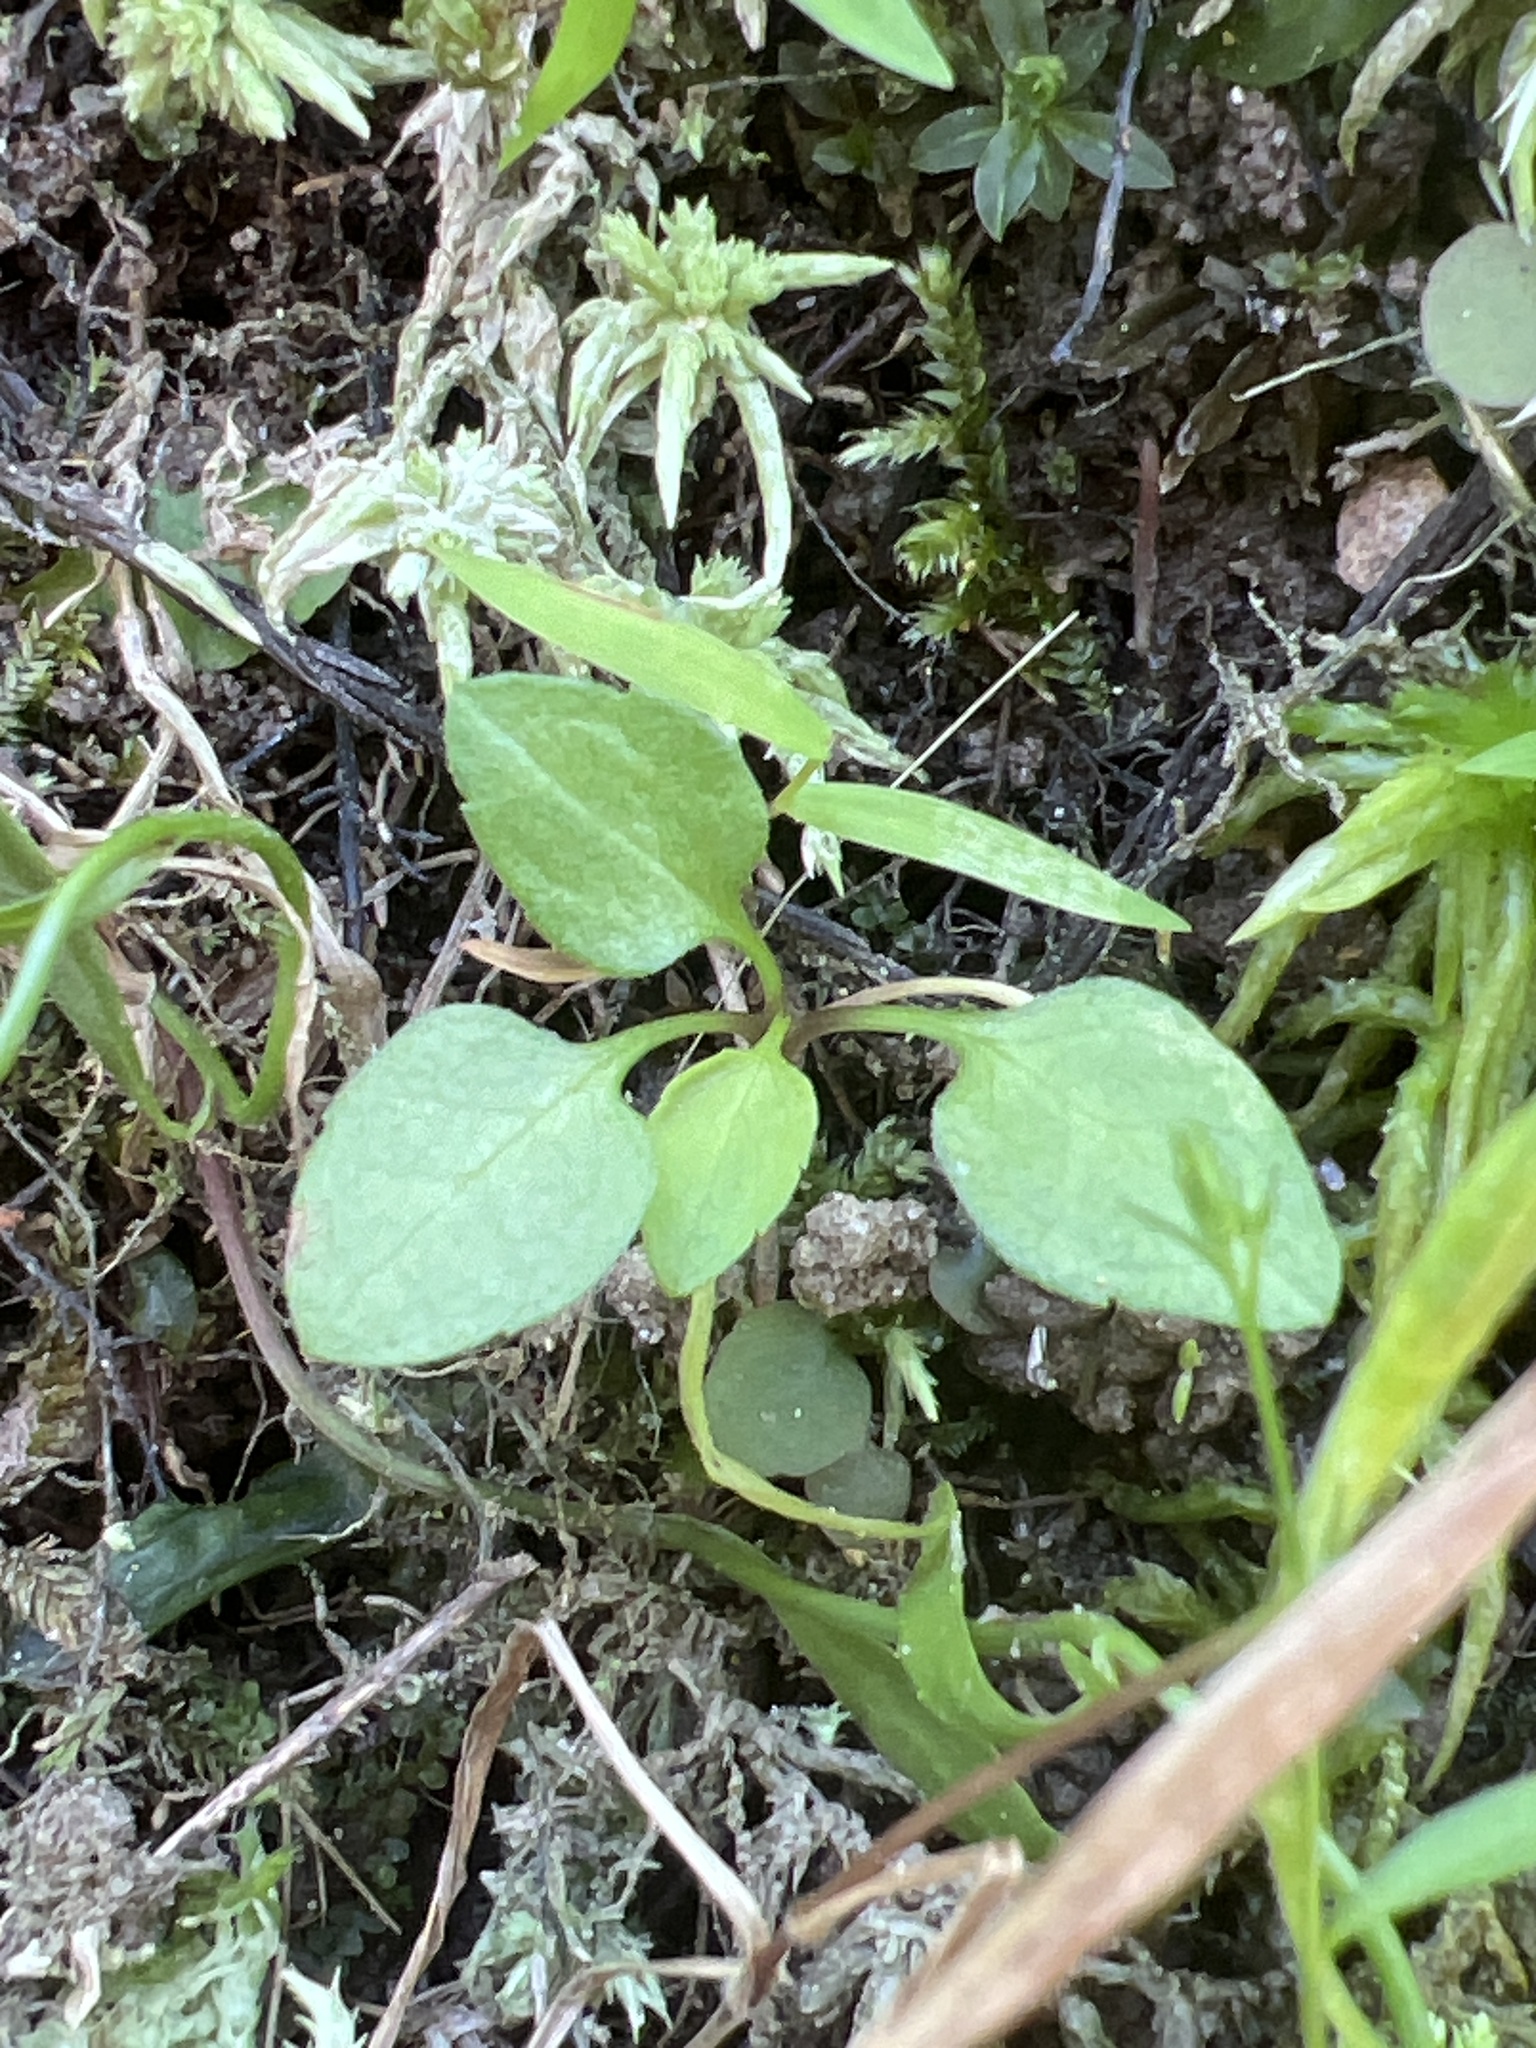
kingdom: Plantae
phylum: Tracheophyta
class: Magnoliopsida
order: Asterales
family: Campanulaceae
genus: Lobelia
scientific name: Lobelia nuttallii
